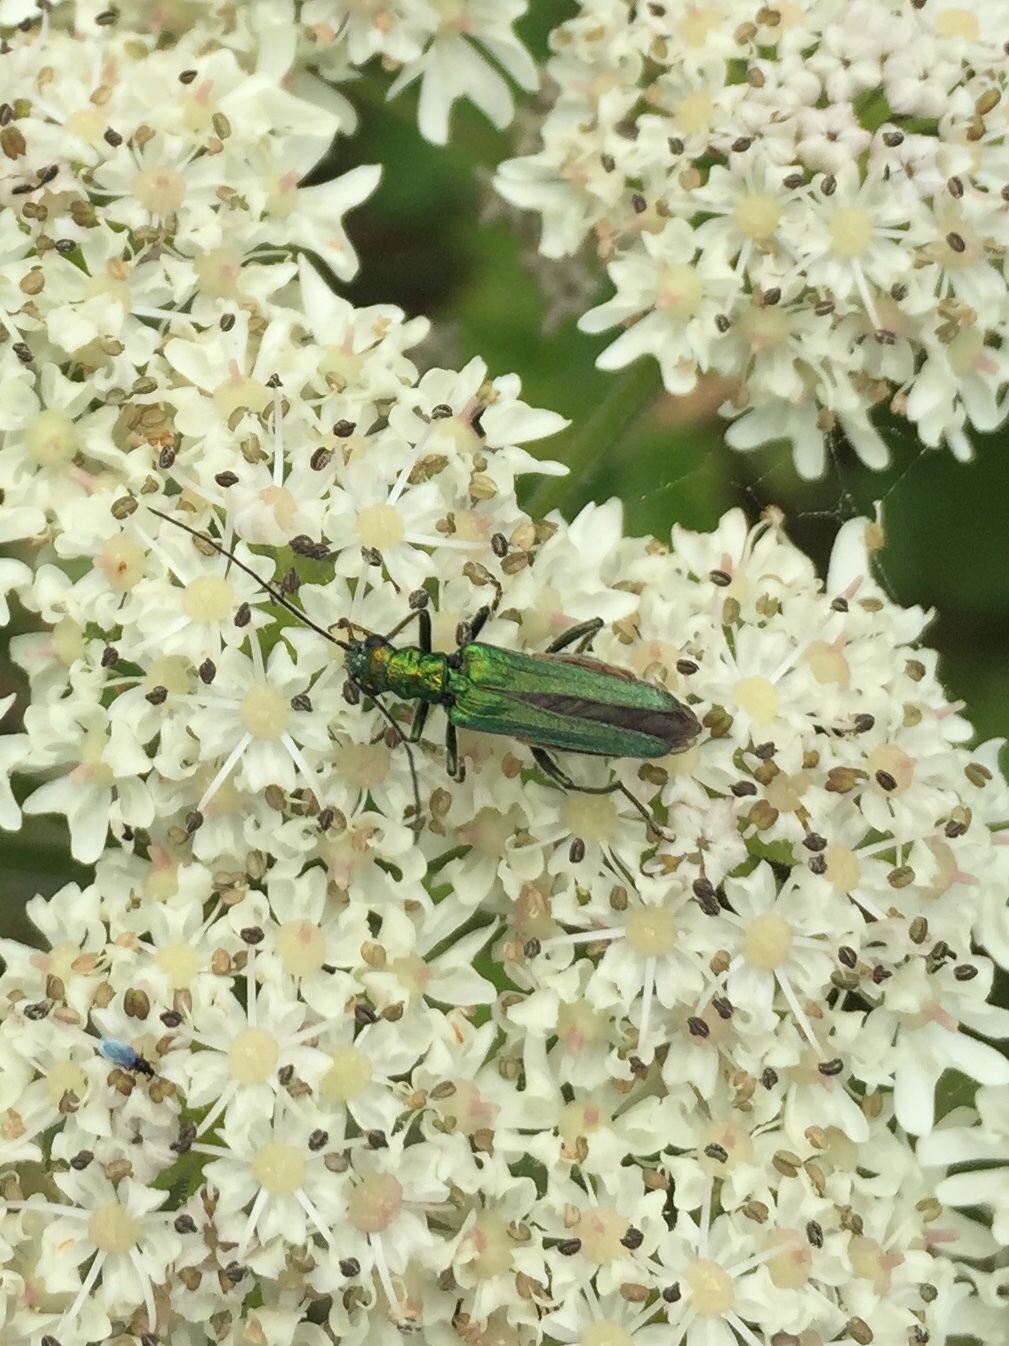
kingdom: Animalia
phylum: Arthropoda
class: Insecta
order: Coleoptera
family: Oedemeridae
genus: Oedemera
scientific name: Oedemera nobilis
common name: Swollen-thighed beetle
